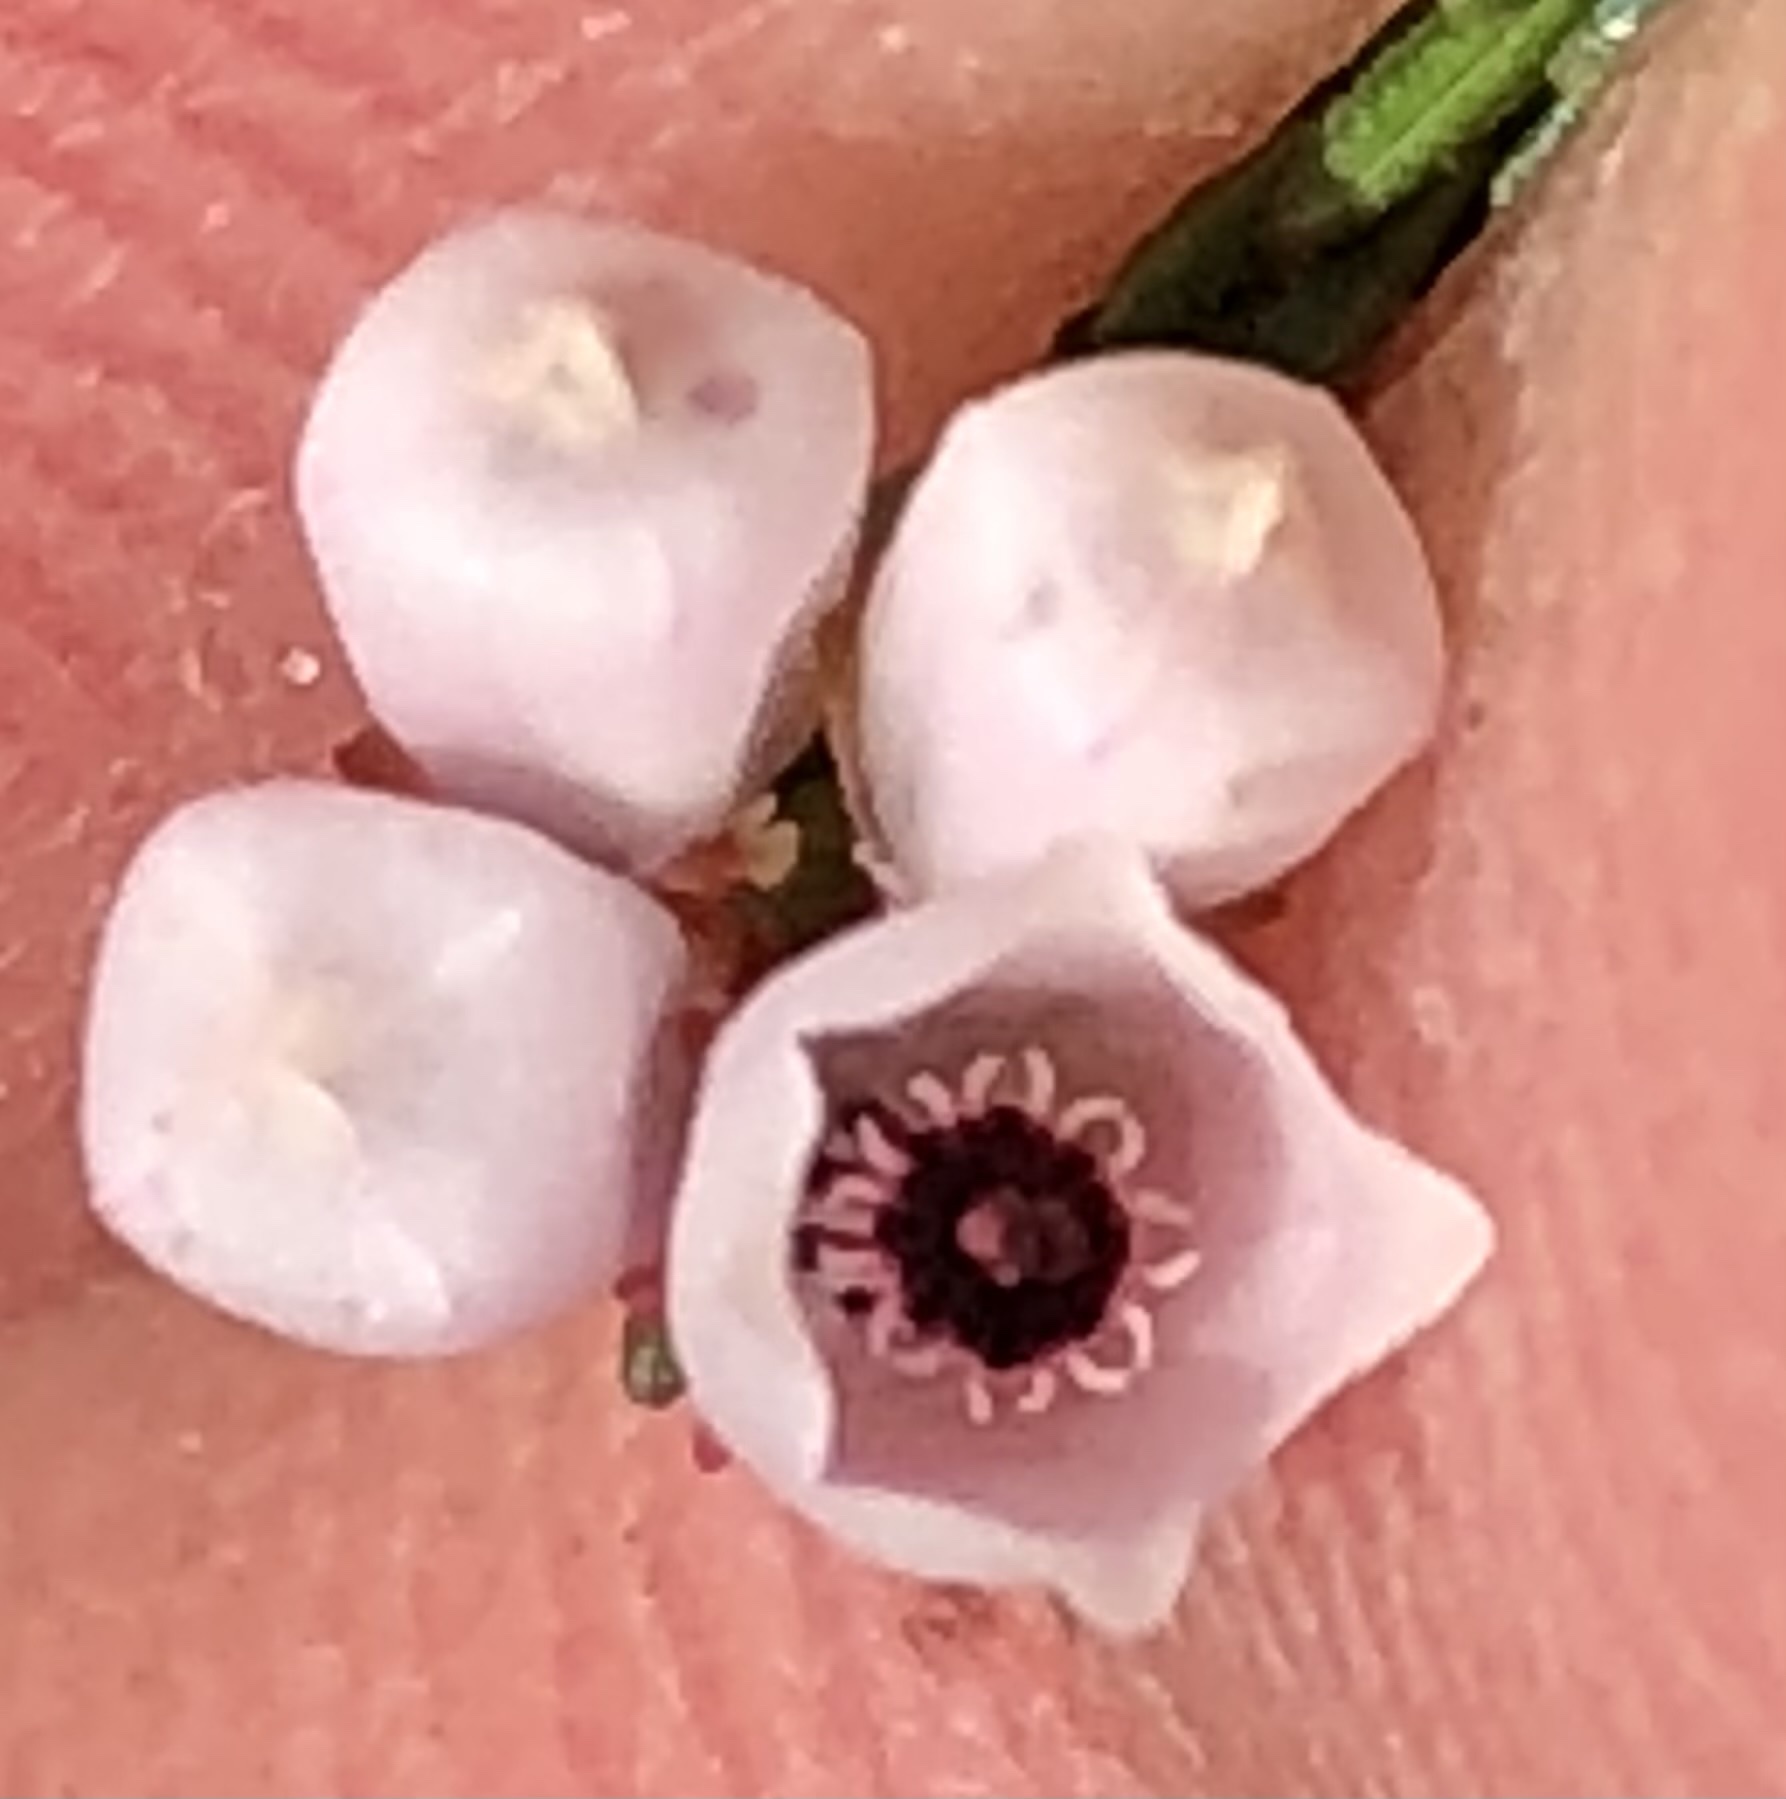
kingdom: Plantae
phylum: Tracheophyta
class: Magnoliopsida
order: Ericales
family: Ericaceae
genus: Erica
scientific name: Erica quadrangularis
